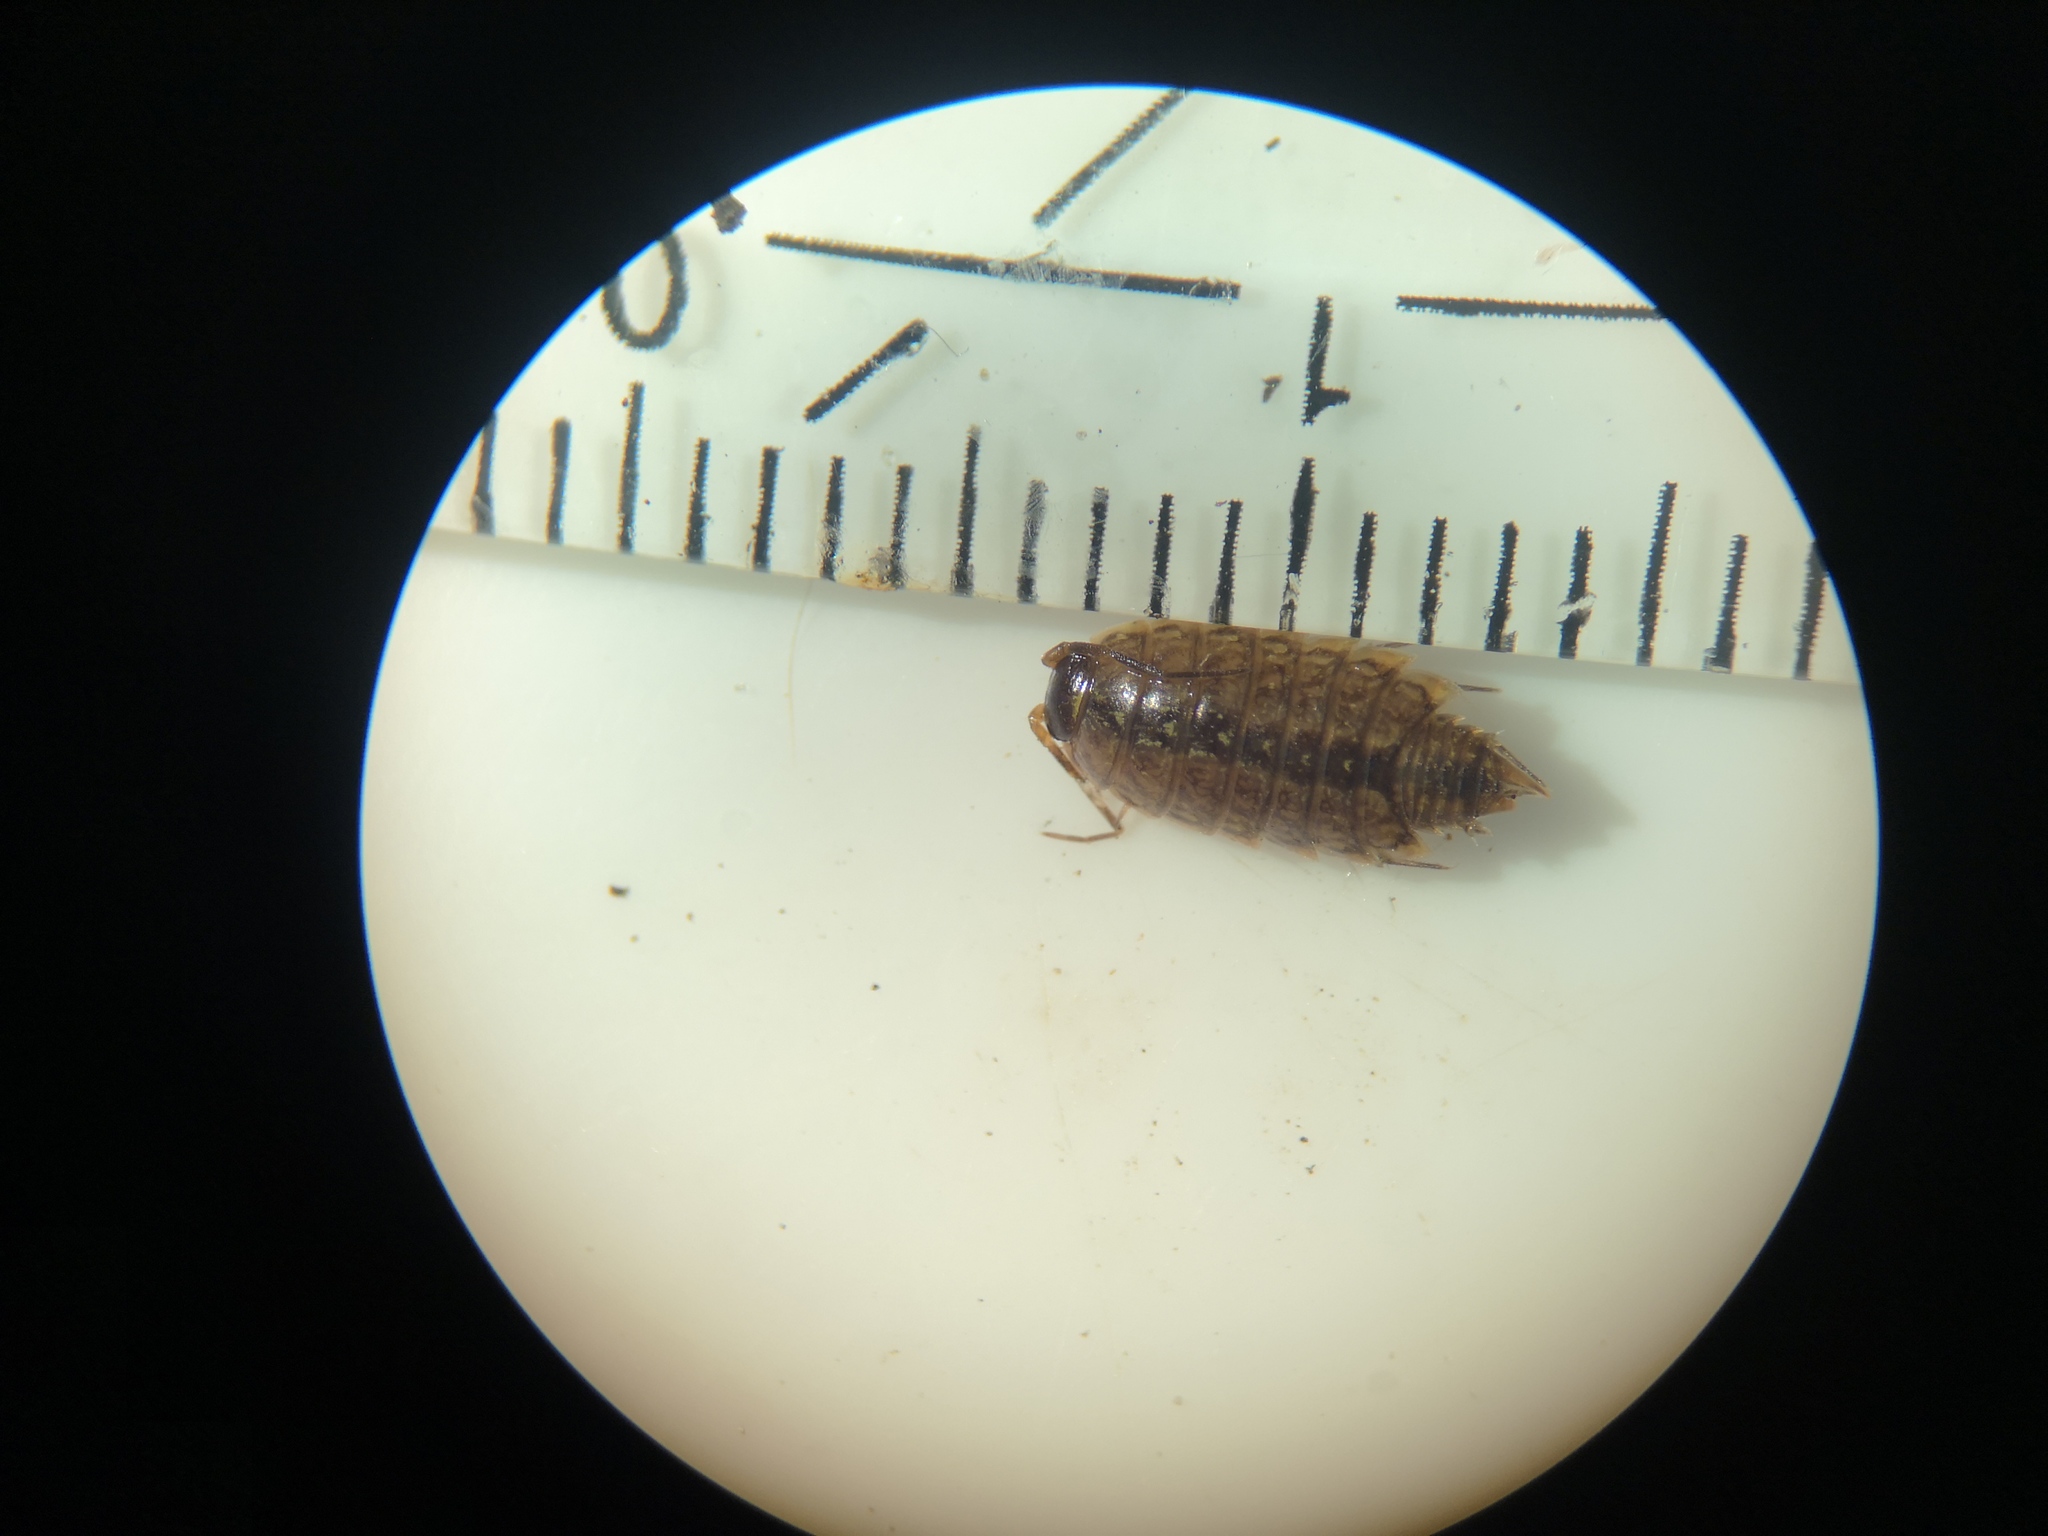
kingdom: Animalia
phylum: Arthropoda
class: Malacostraca
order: Isopoda
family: Philosciidae
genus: Philoscia
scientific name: Philoscia muscorum
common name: Common striped woodlouse
